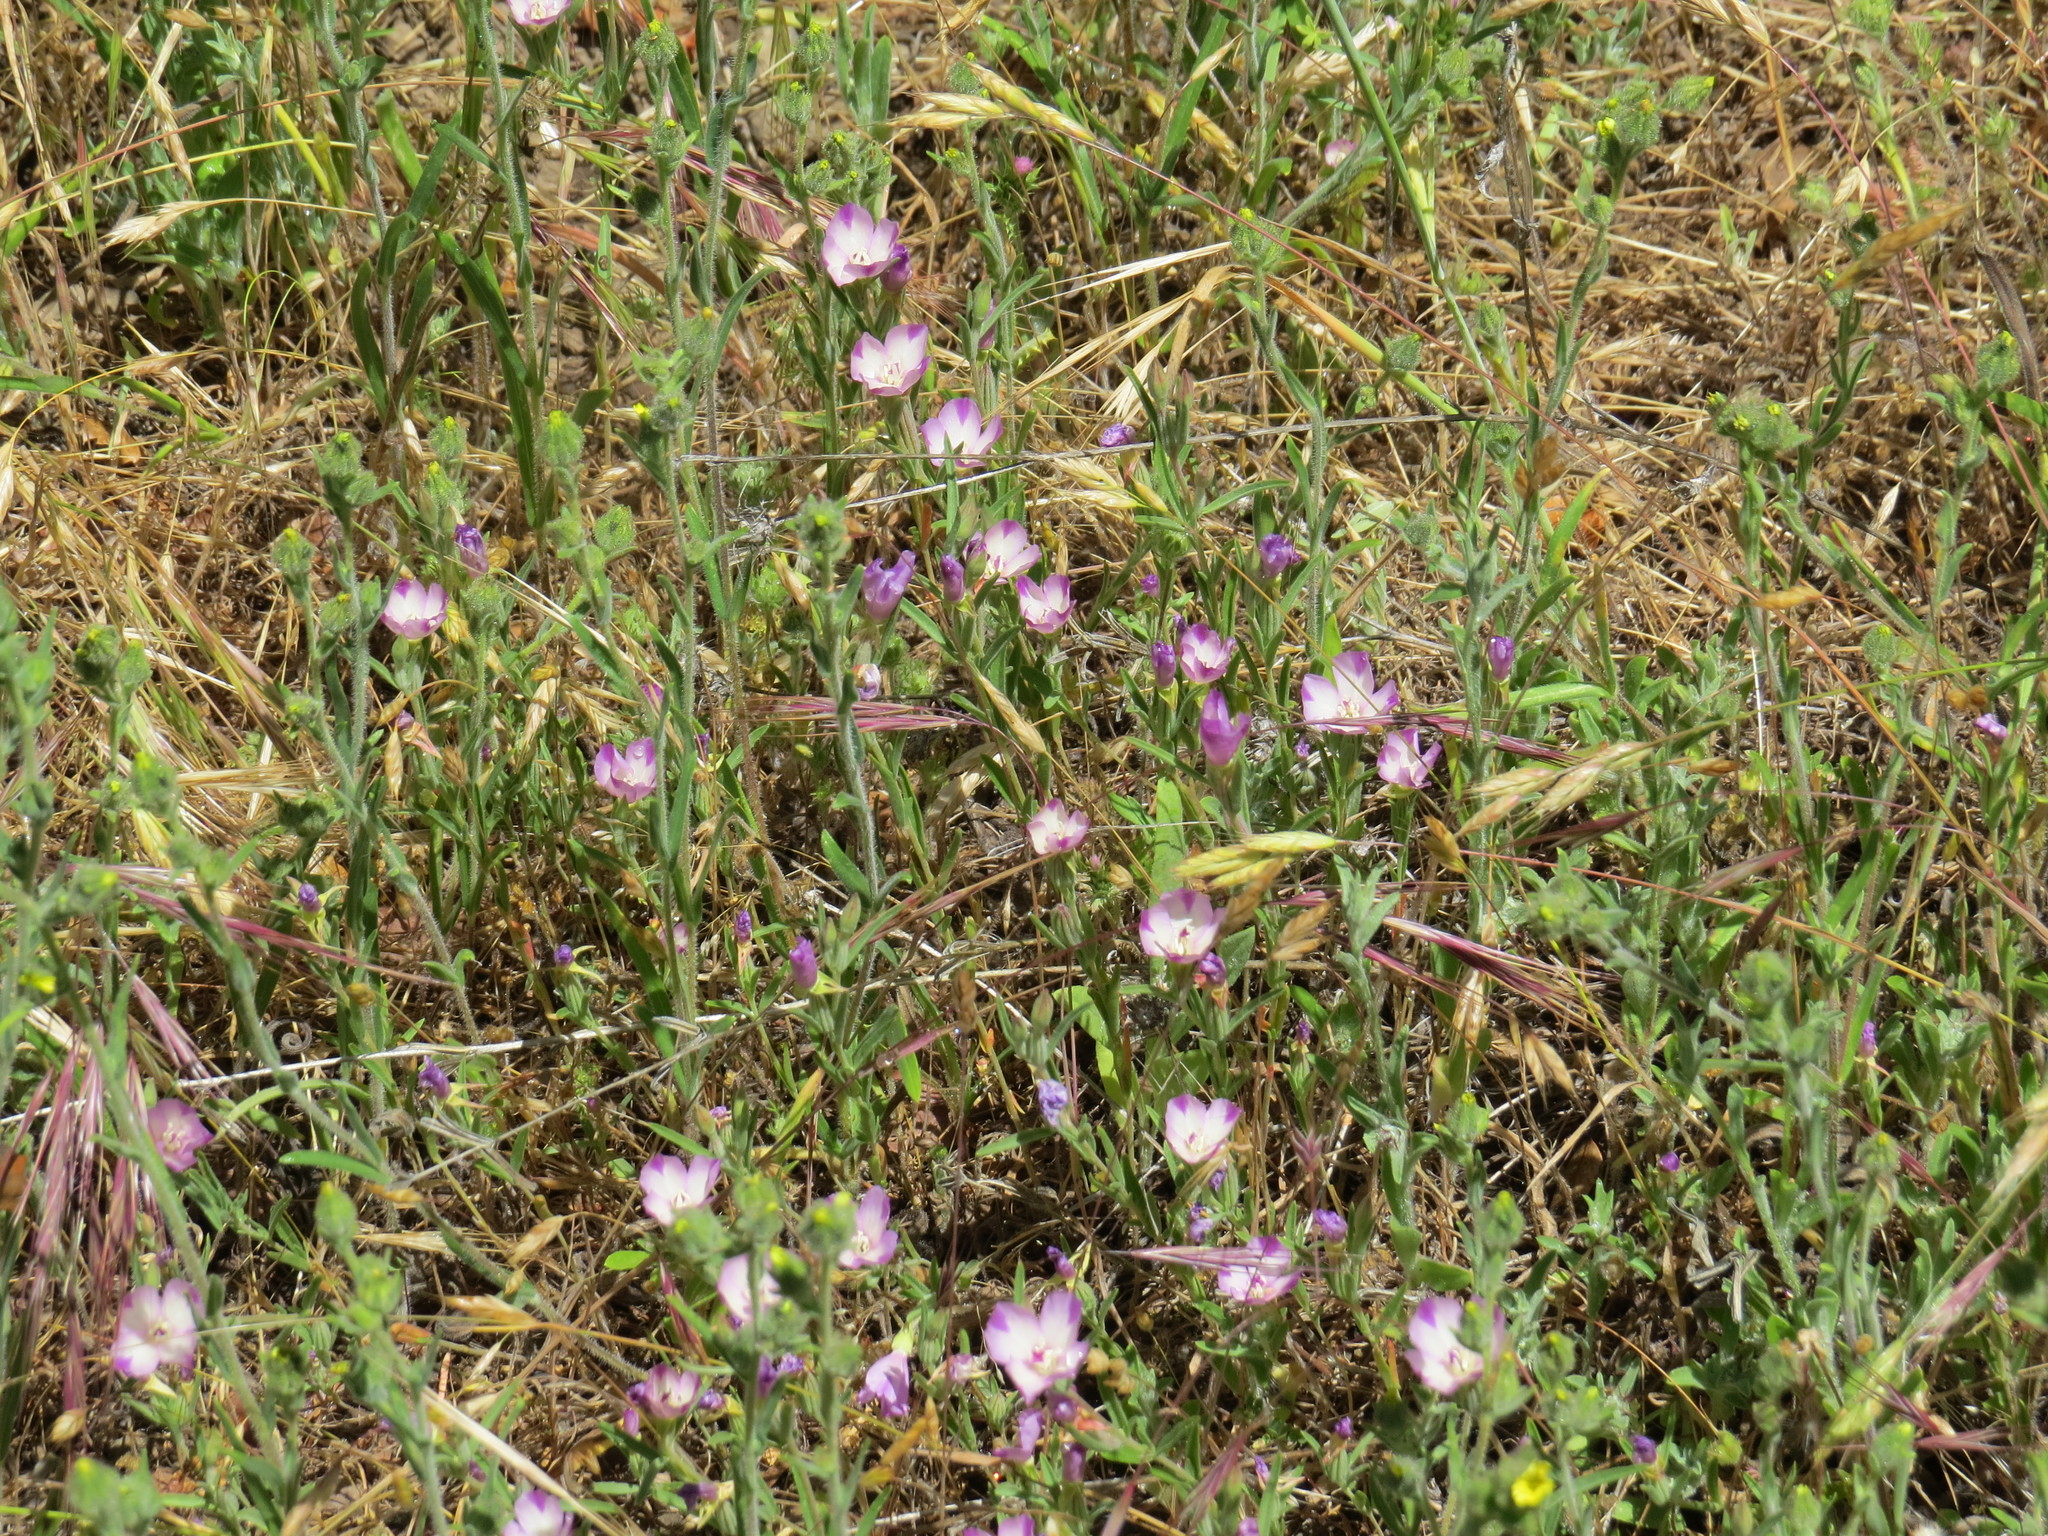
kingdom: Plantae
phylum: Tracheophyta
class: Magnoliopsida
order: Myrtales
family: Onagraceae
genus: Clarkia
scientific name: Clarkia purpurea
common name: Purple clarkia
